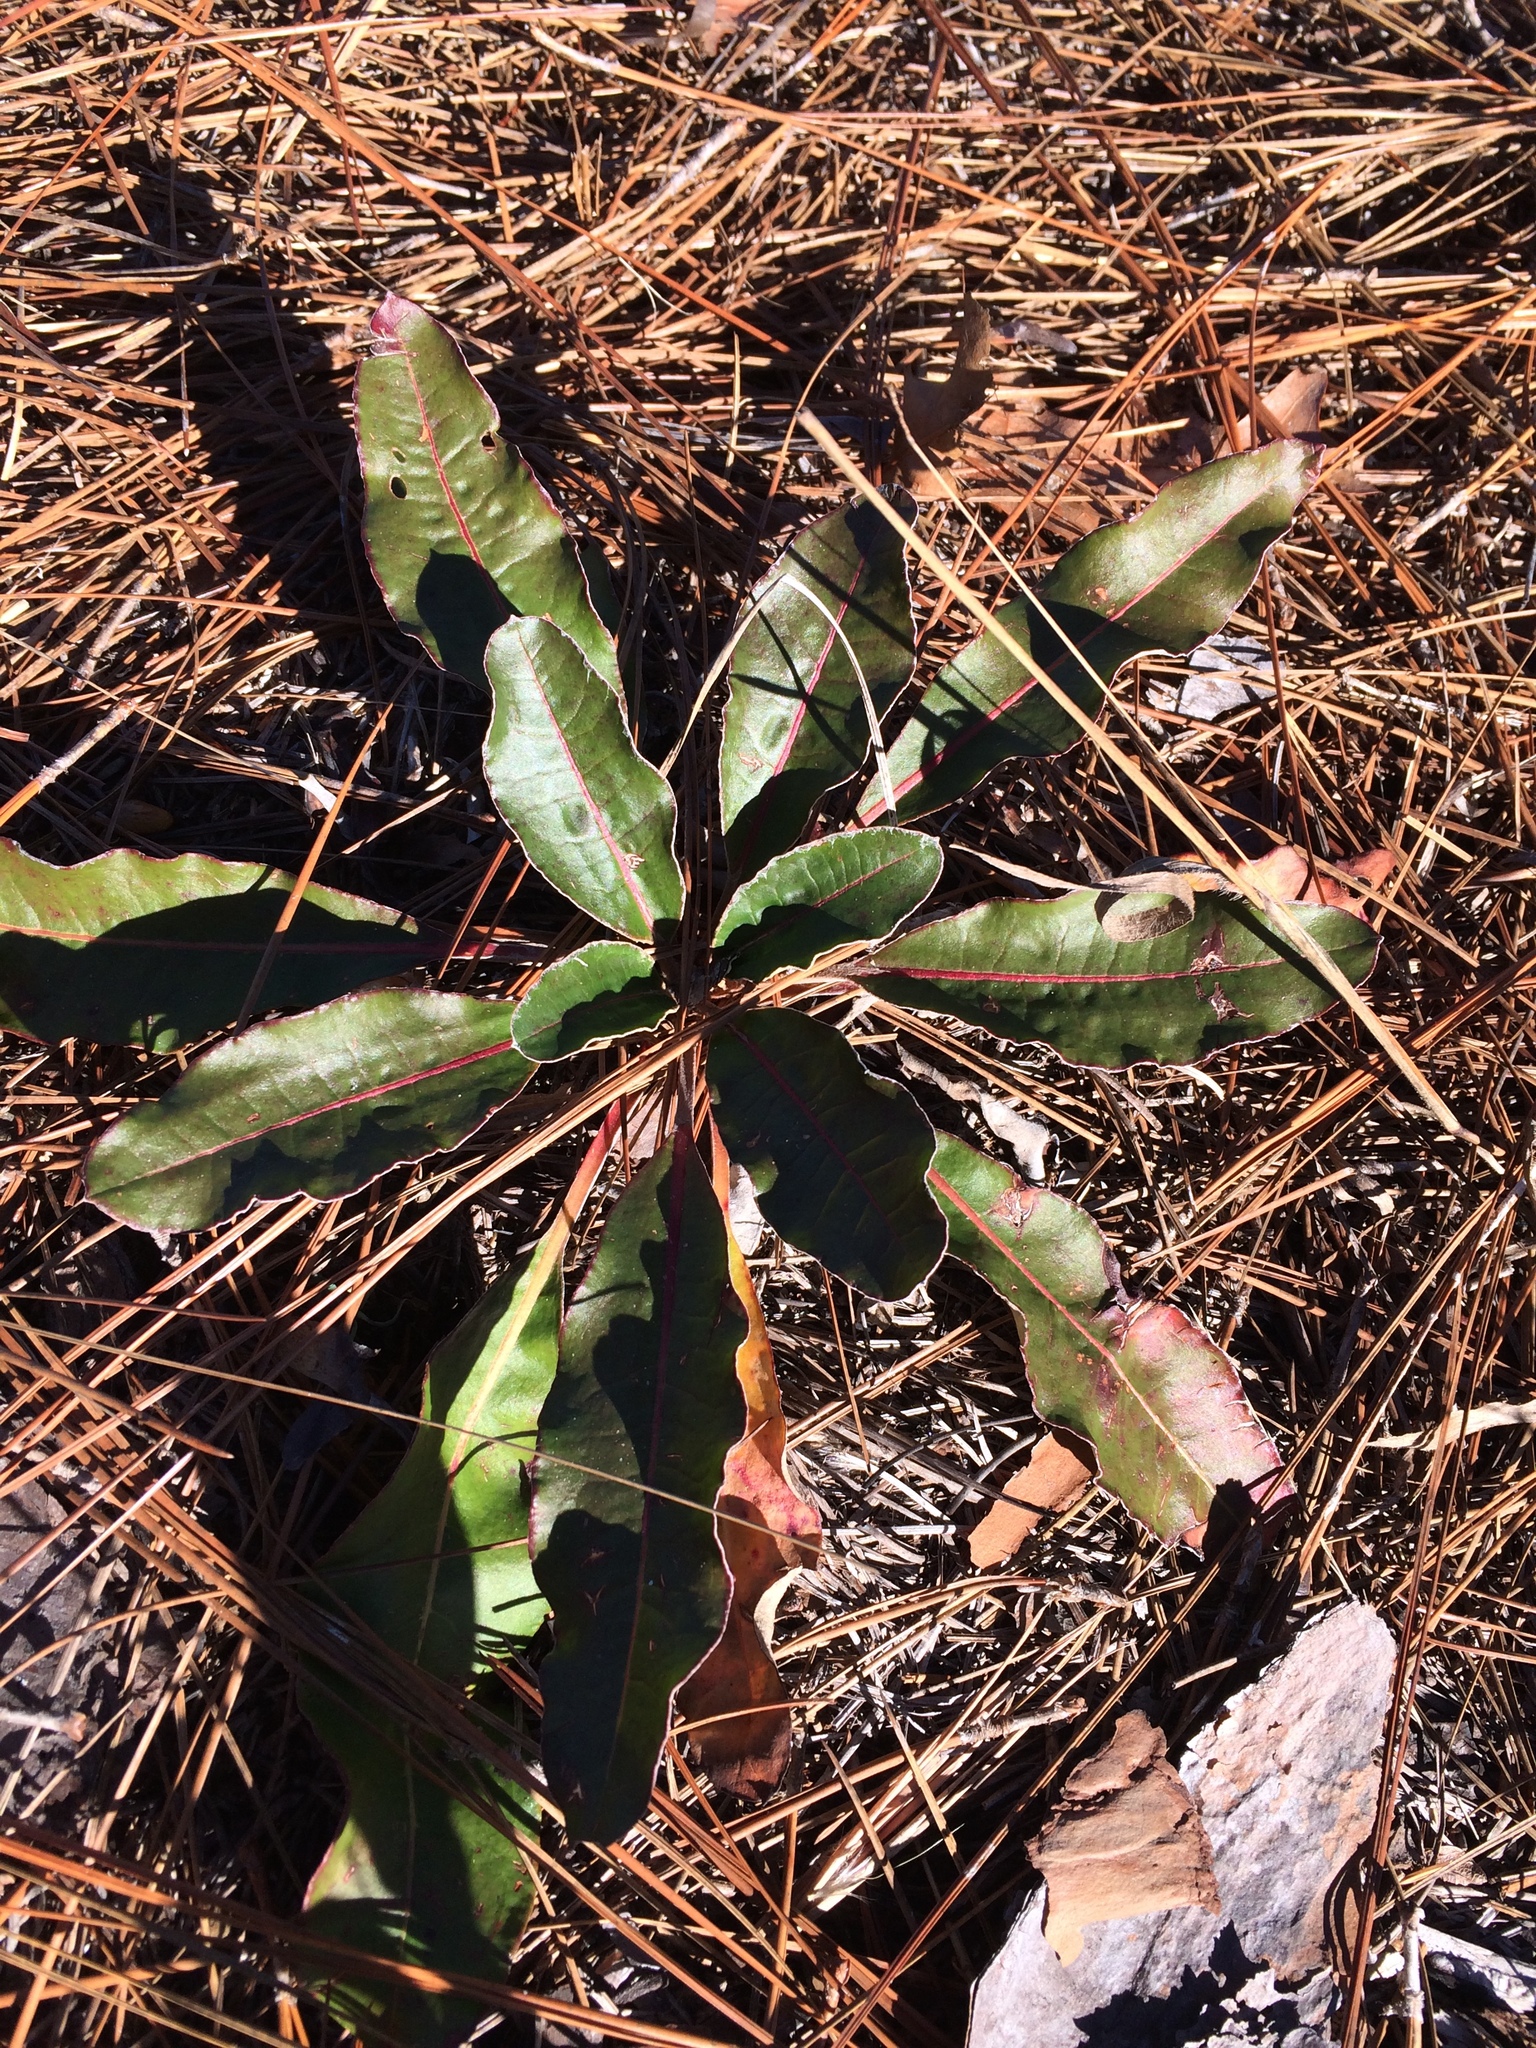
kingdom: Plantae
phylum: Tracheophyta
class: Magnoliopsida
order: Caryophyllales
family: Polygonaceae
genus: Eriogonum
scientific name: Eriogonum tomentosum
